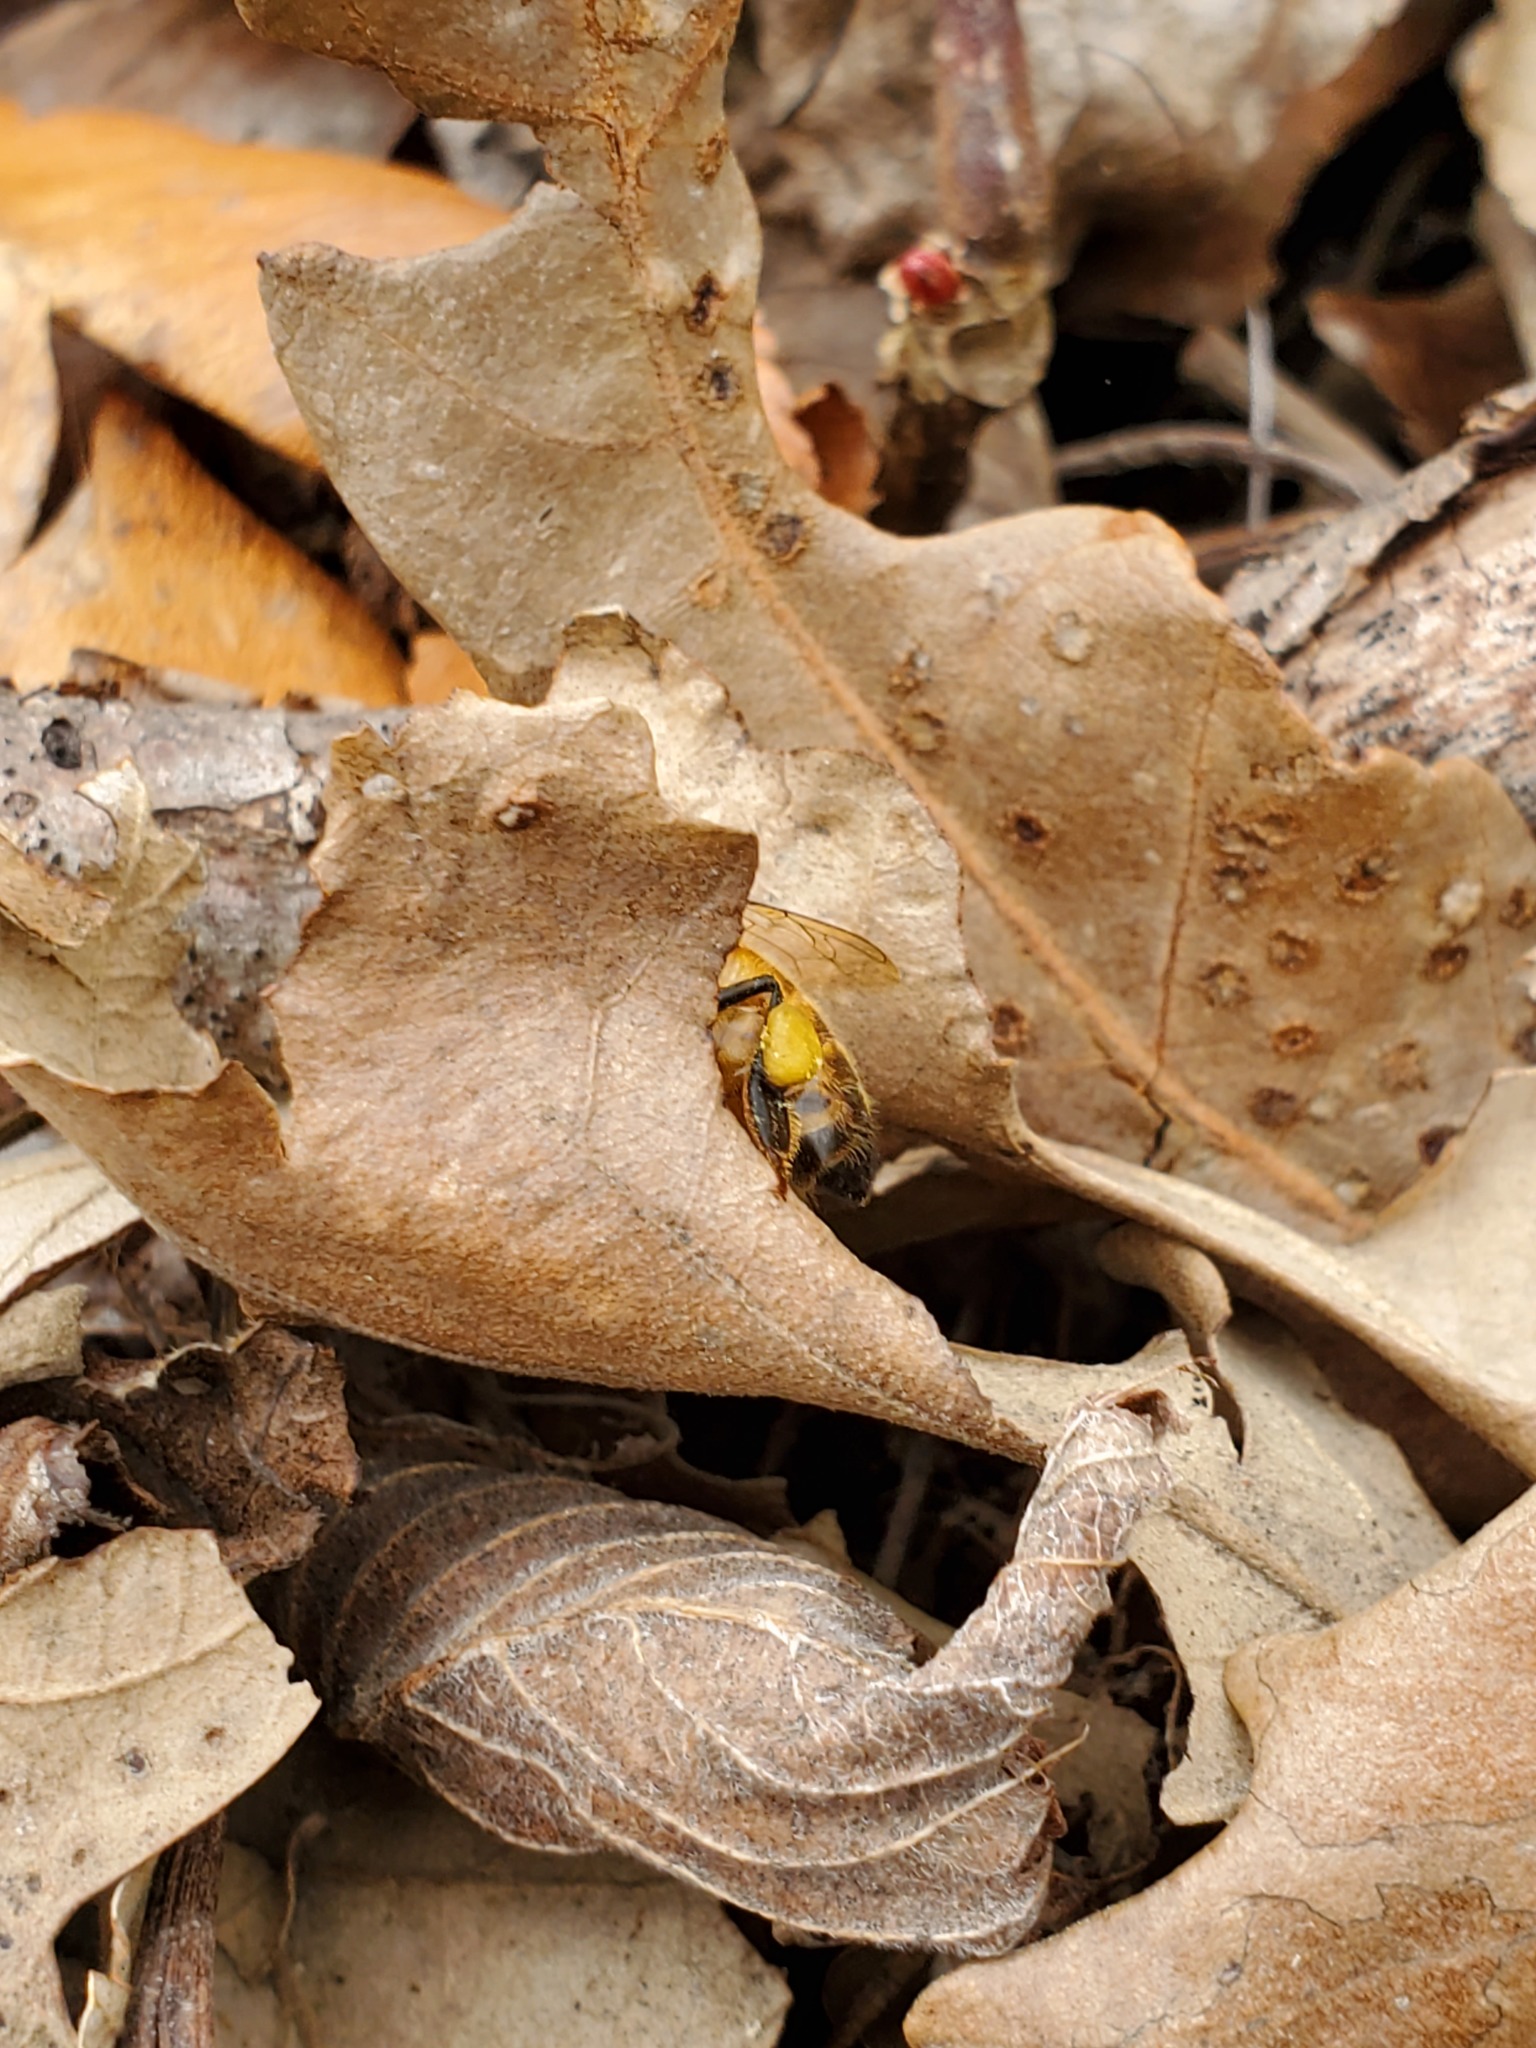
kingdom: Animalia
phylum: Arthropoda
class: Insecta
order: Hymenoptera
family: Apidae
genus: Apis
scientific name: Apis mellifera
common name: Honey bee
